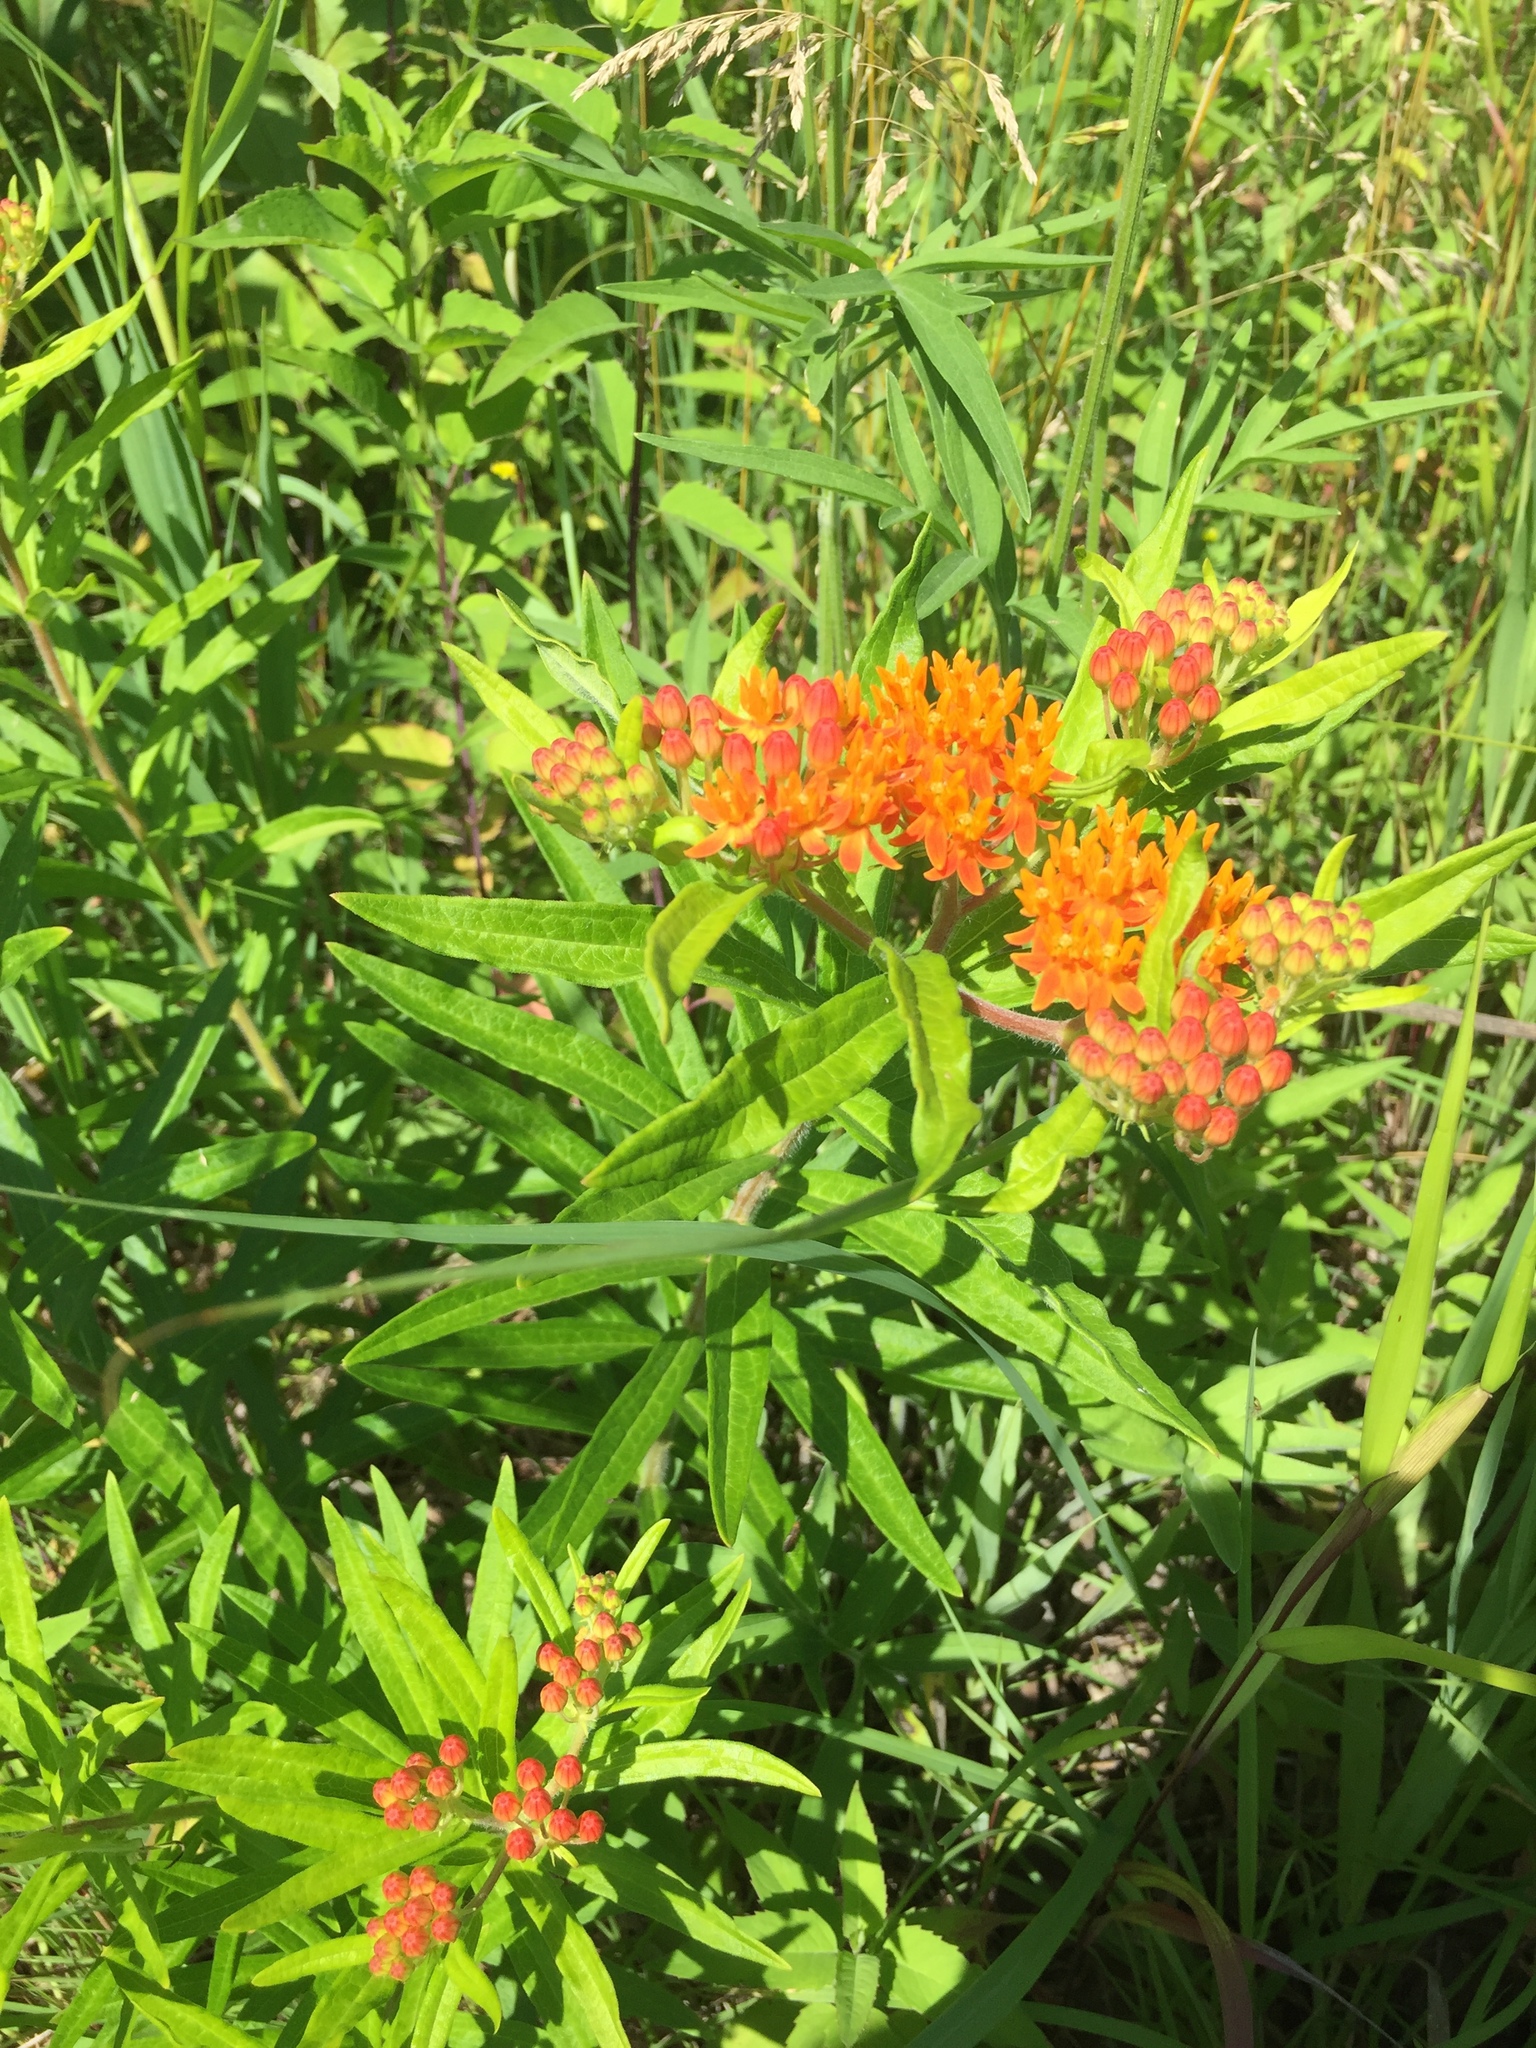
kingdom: Plantae
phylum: Tracheophyta
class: Magnoliopsida
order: Gentianales
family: Apocynaceae
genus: Asclepias
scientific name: Asclepias tuberosa
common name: Butterfly milkweed
